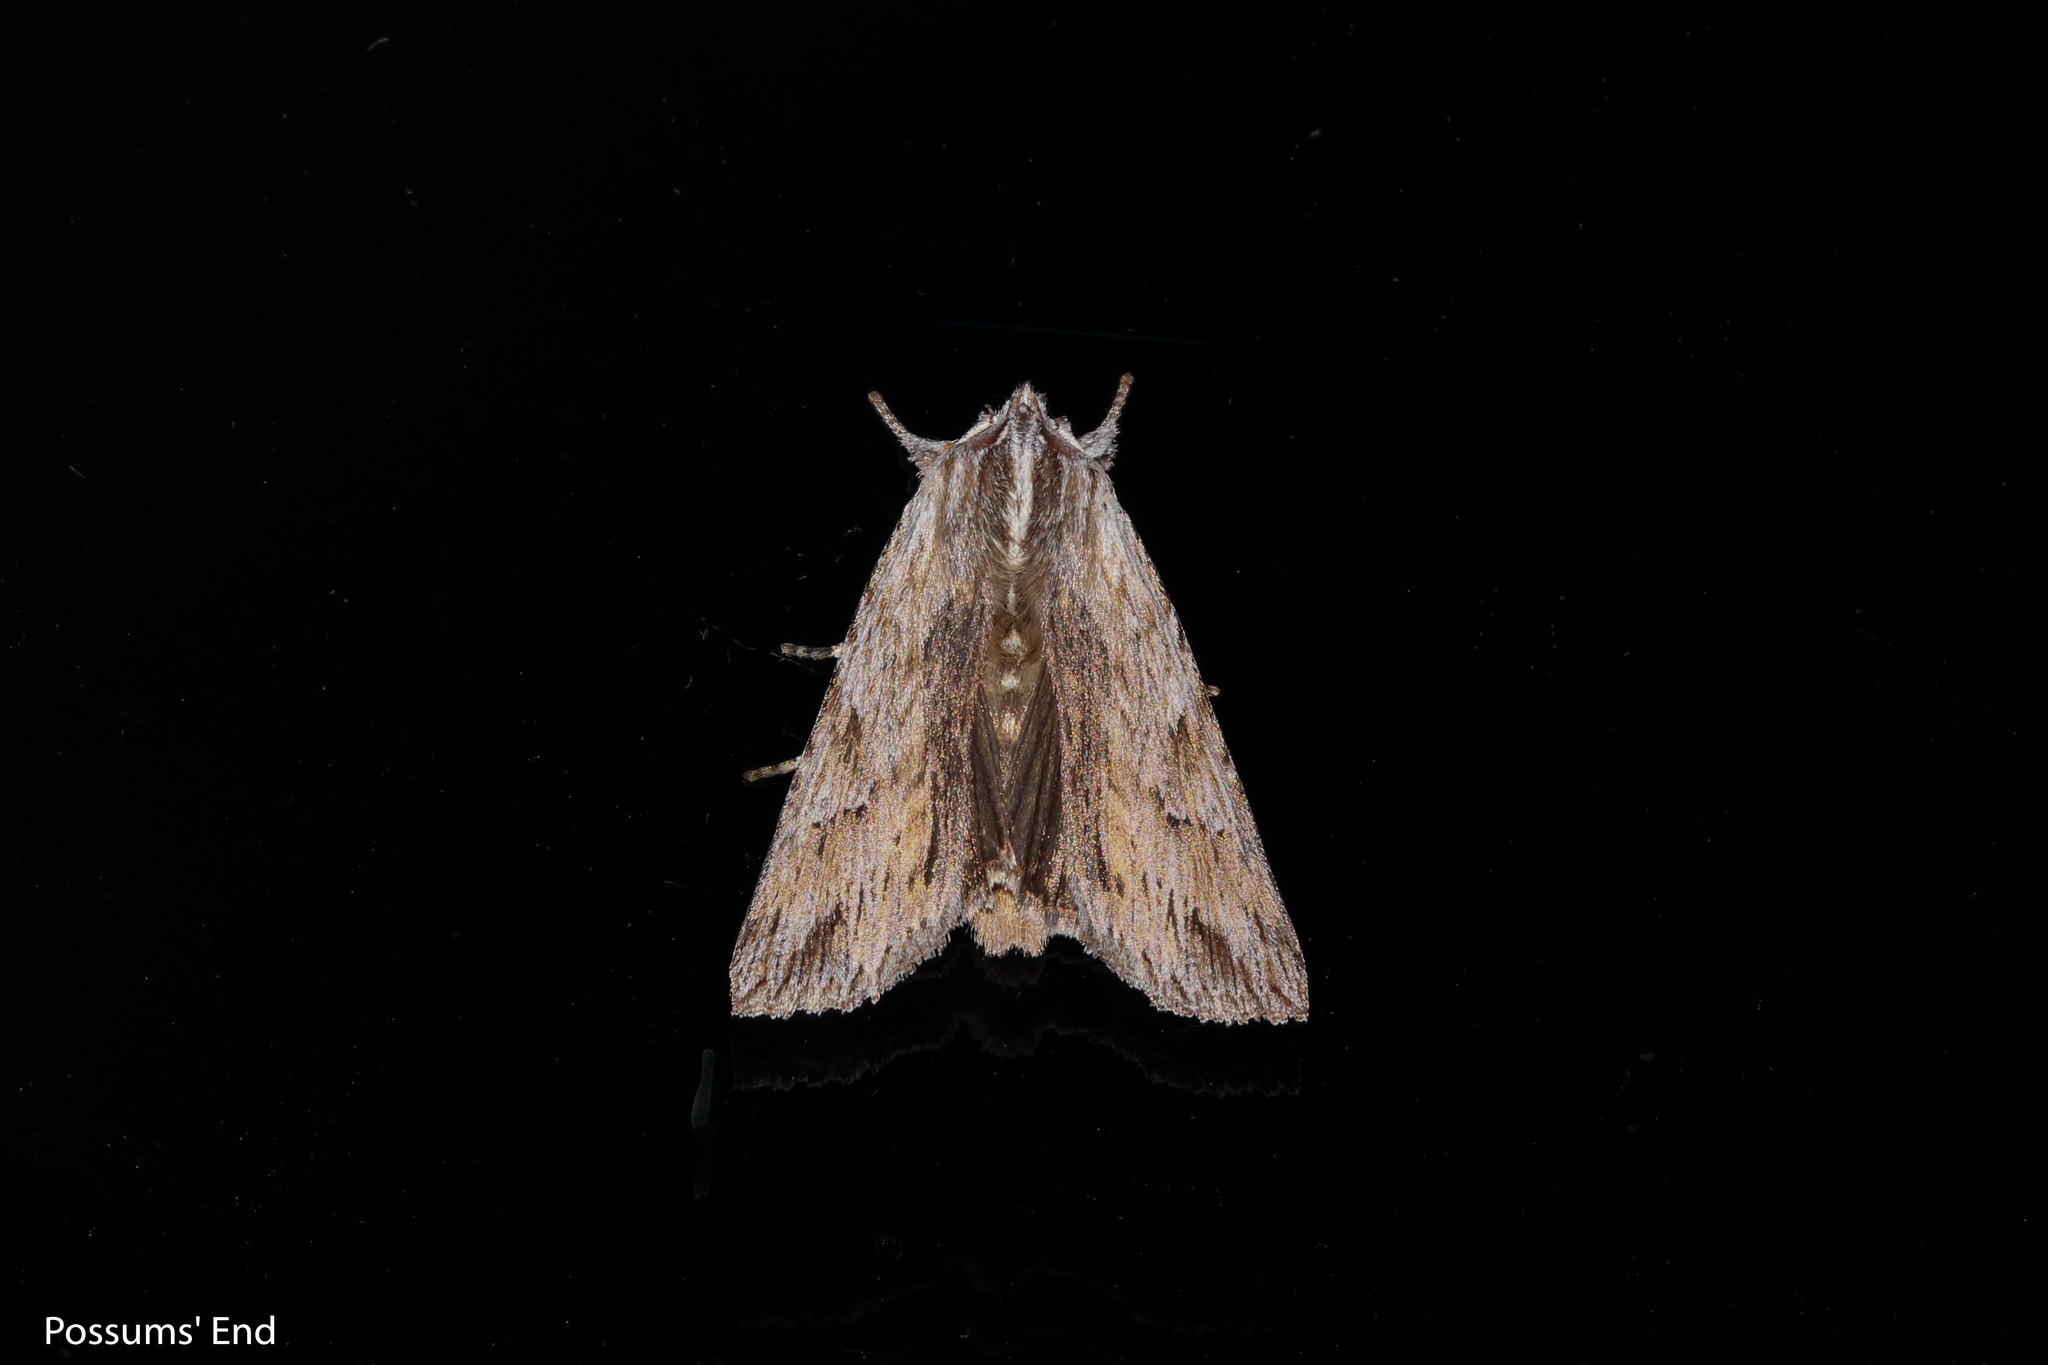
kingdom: Animalia
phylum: Arthropoda
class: Insecta
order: Lepidoptera
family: Noctuidae
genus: Physetica
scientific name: Physetica prionistis
